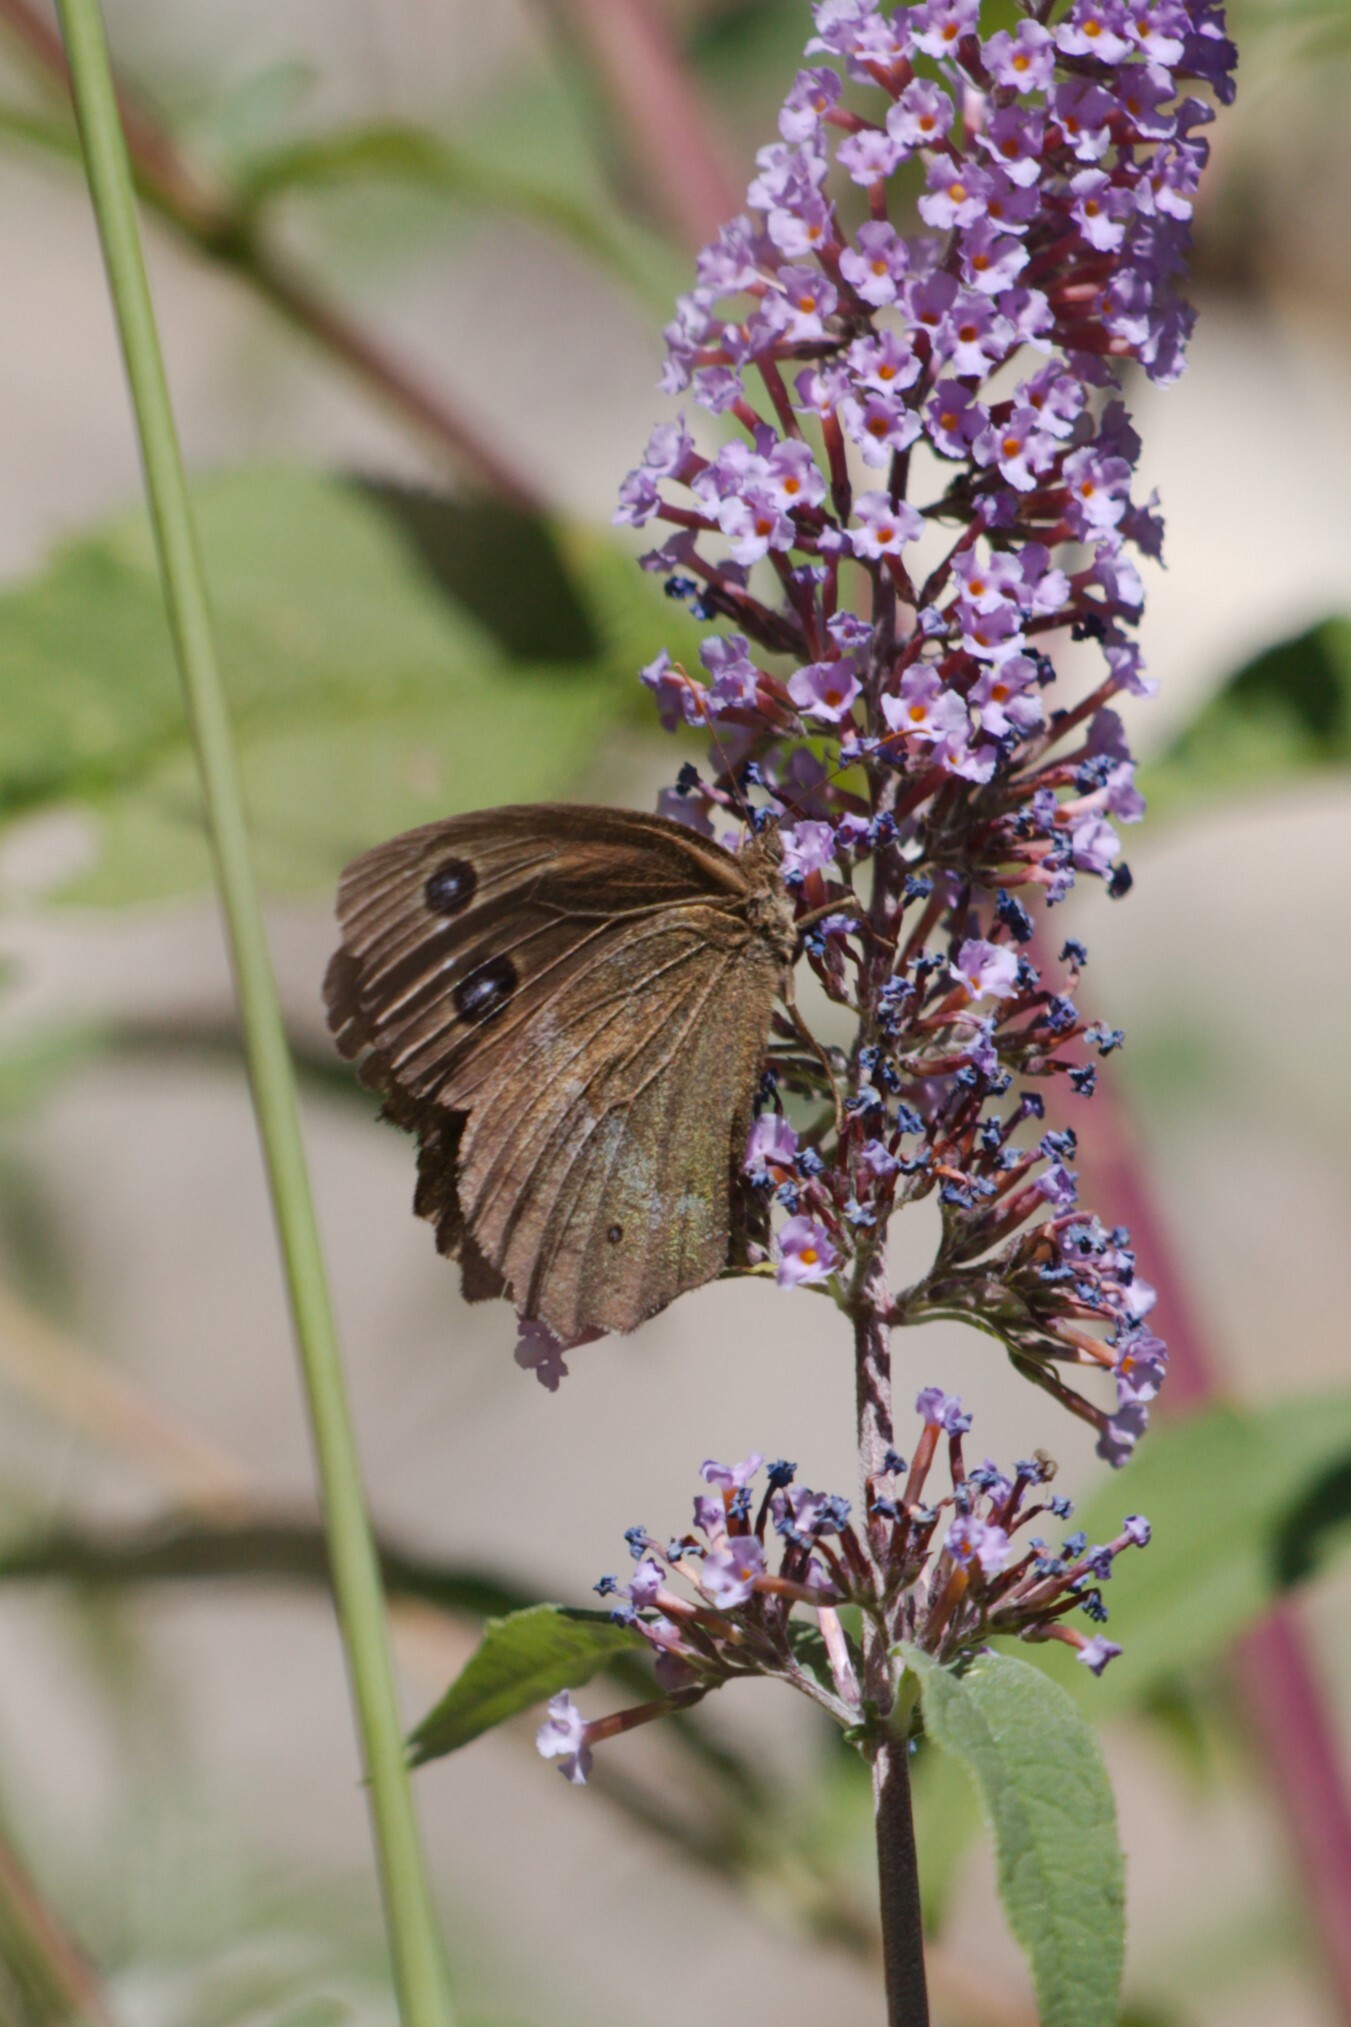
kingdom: Animalia
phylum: Arthropoda
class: Insecta
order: Lepidoptera
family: Nymphalidae
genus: Minois
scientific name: Minois dryas
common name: Dryad
